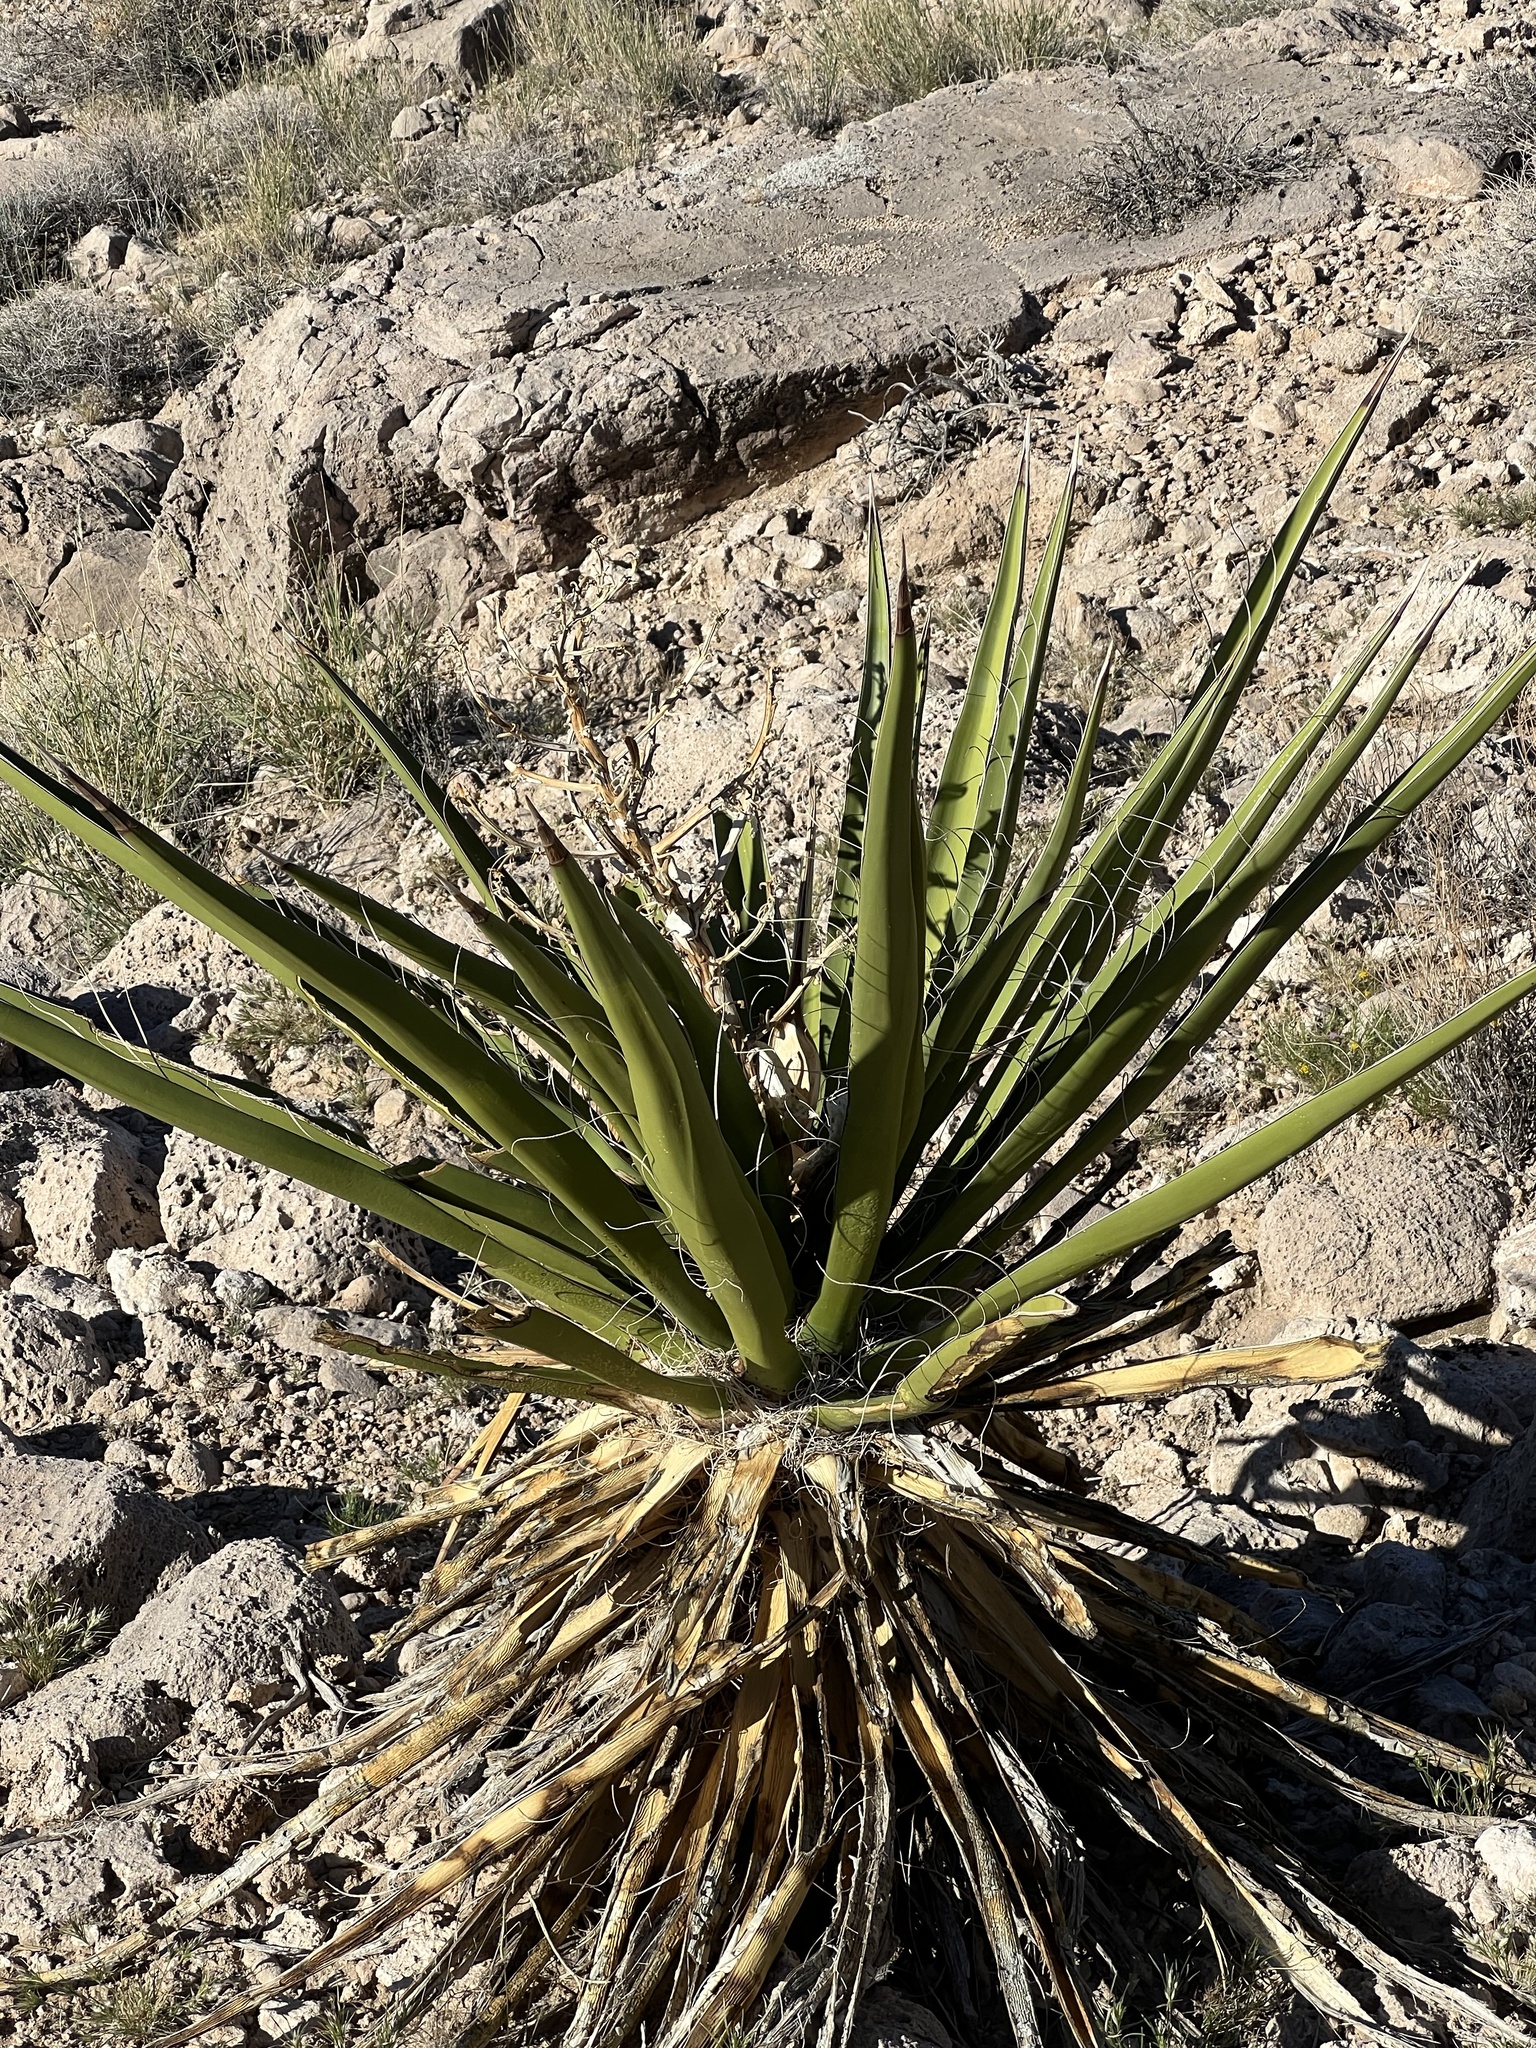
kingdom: Plantae
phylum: Tracheophyta
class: Liliopsida
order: Asparagales
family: Asparagaceae
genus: Yucca
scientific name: Yucca schidigera
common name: Mojave yucca
